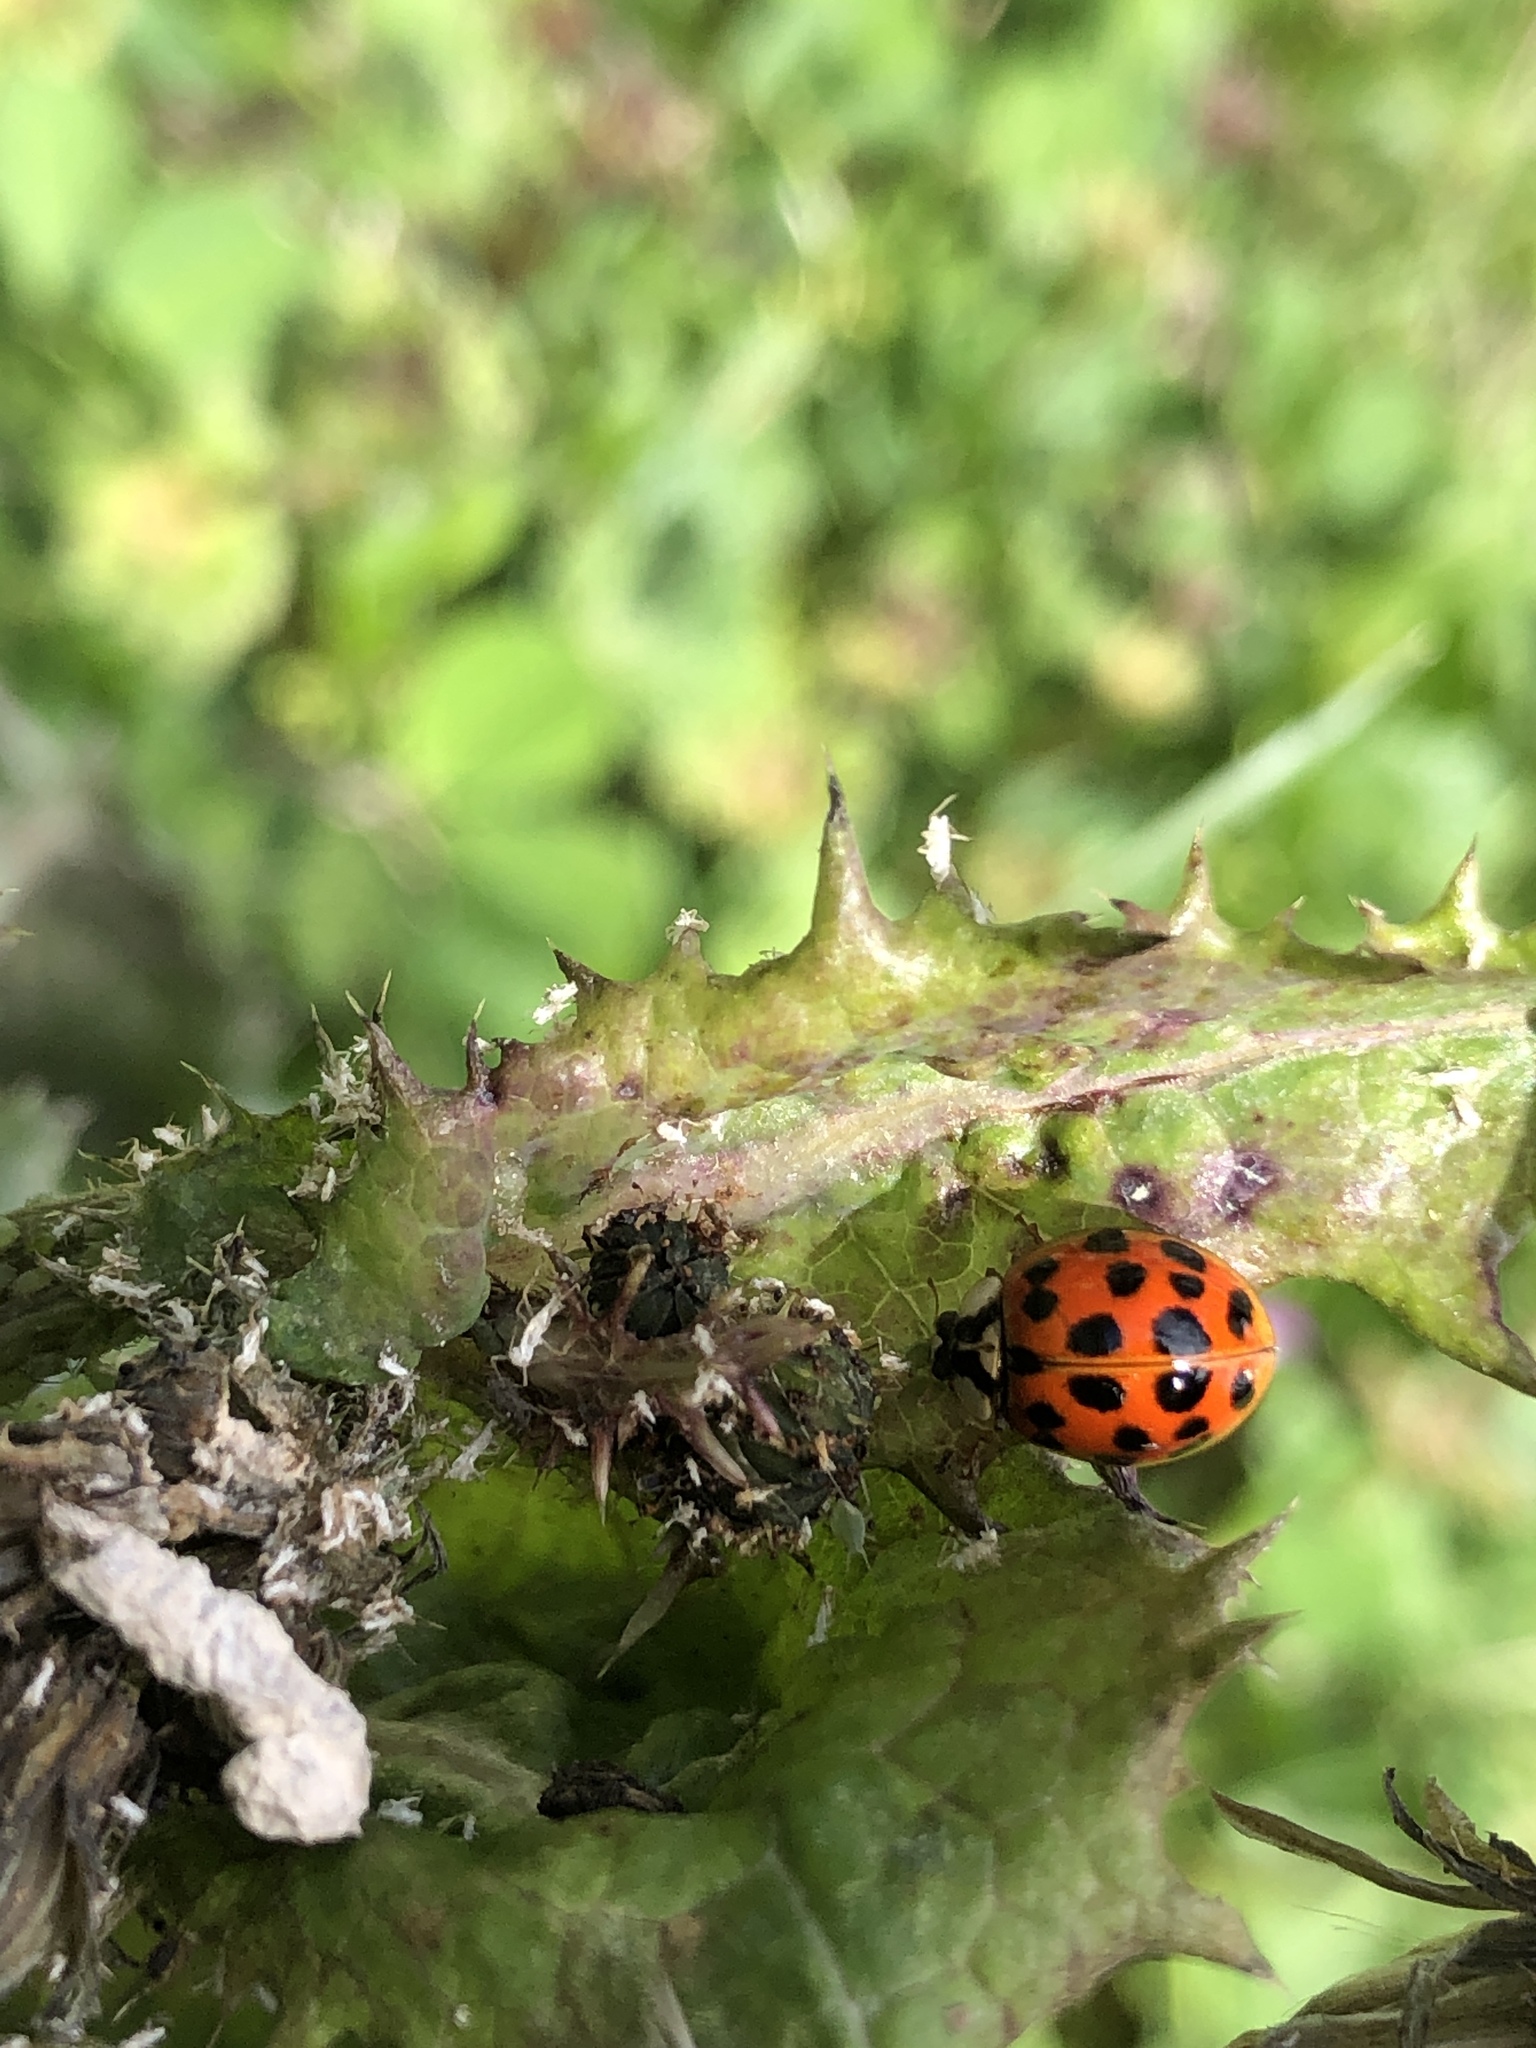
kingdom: Animalia
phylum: Arthropoda
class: Insecta
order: Coleoptera
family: Coccinellidae
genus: Harmonia
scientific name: Harmonia axyridis
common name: Harlequin ladybird
